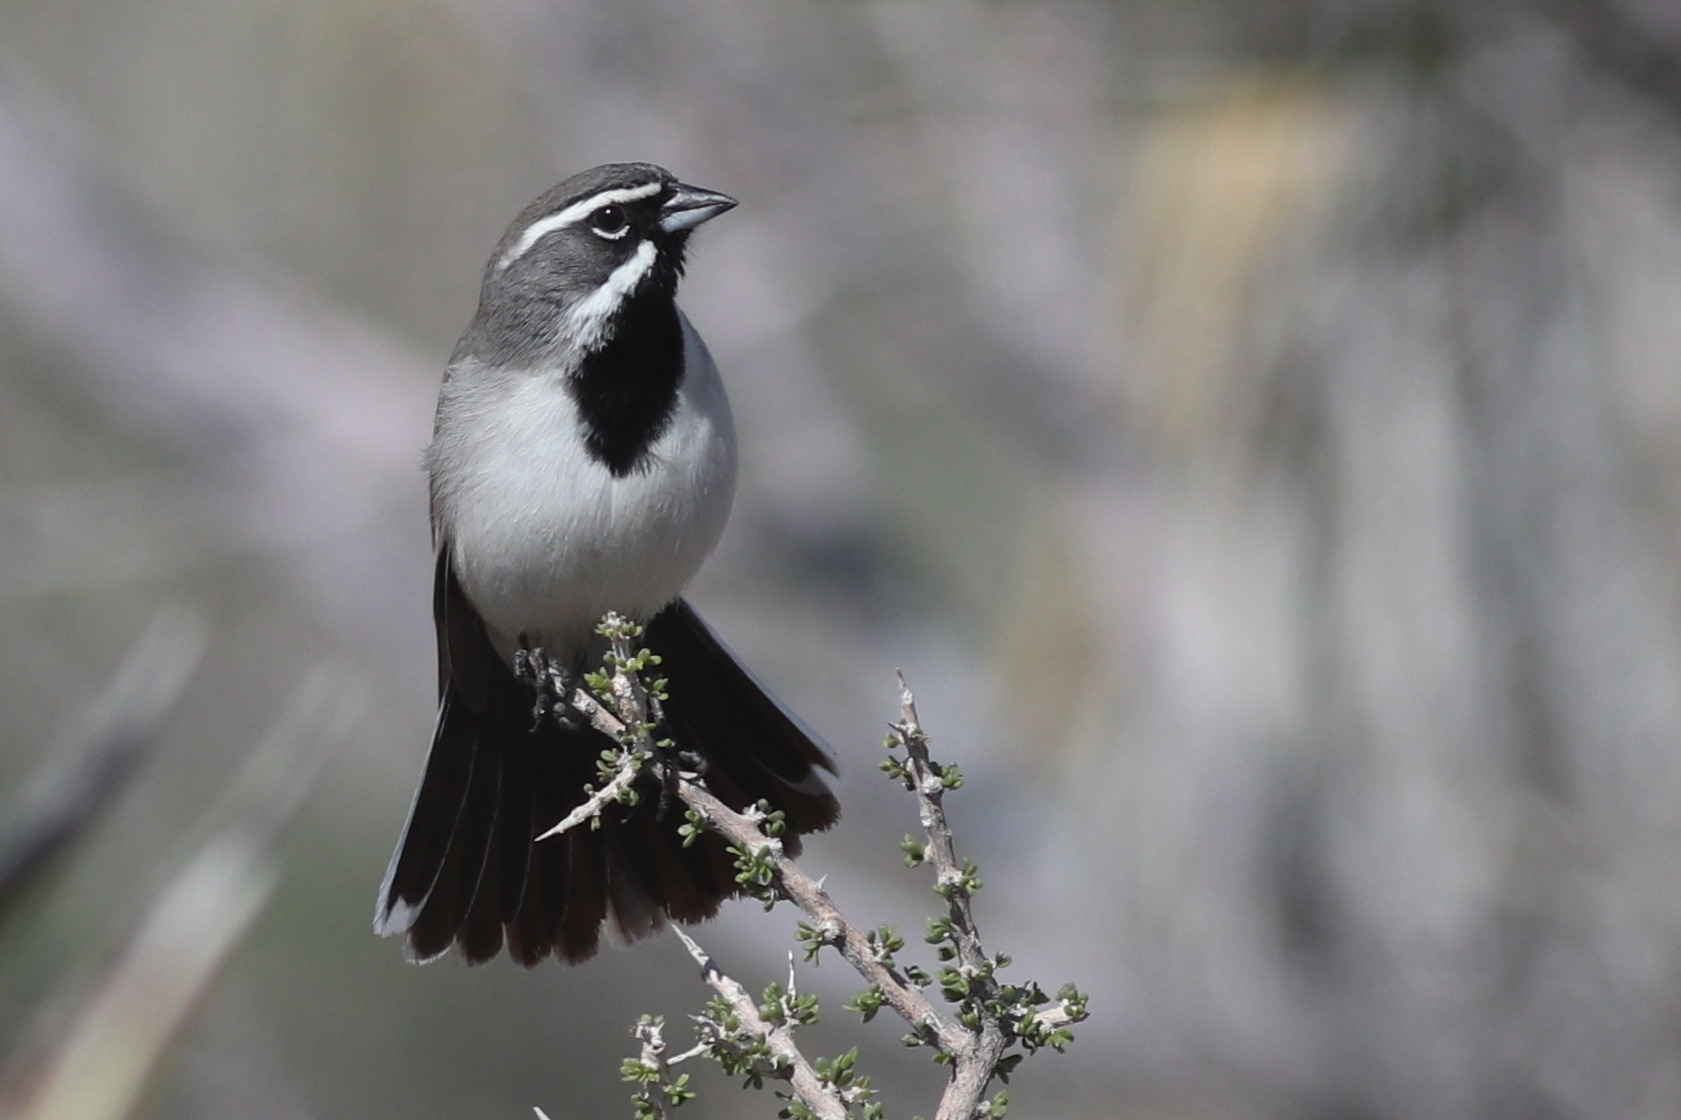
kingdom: Animalia
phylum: Chordata
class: Aves
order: Passeriformes
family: Passerellidae
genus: Amphispiza
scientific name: Amphispiza bilineata
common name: Black-throated sparrow
